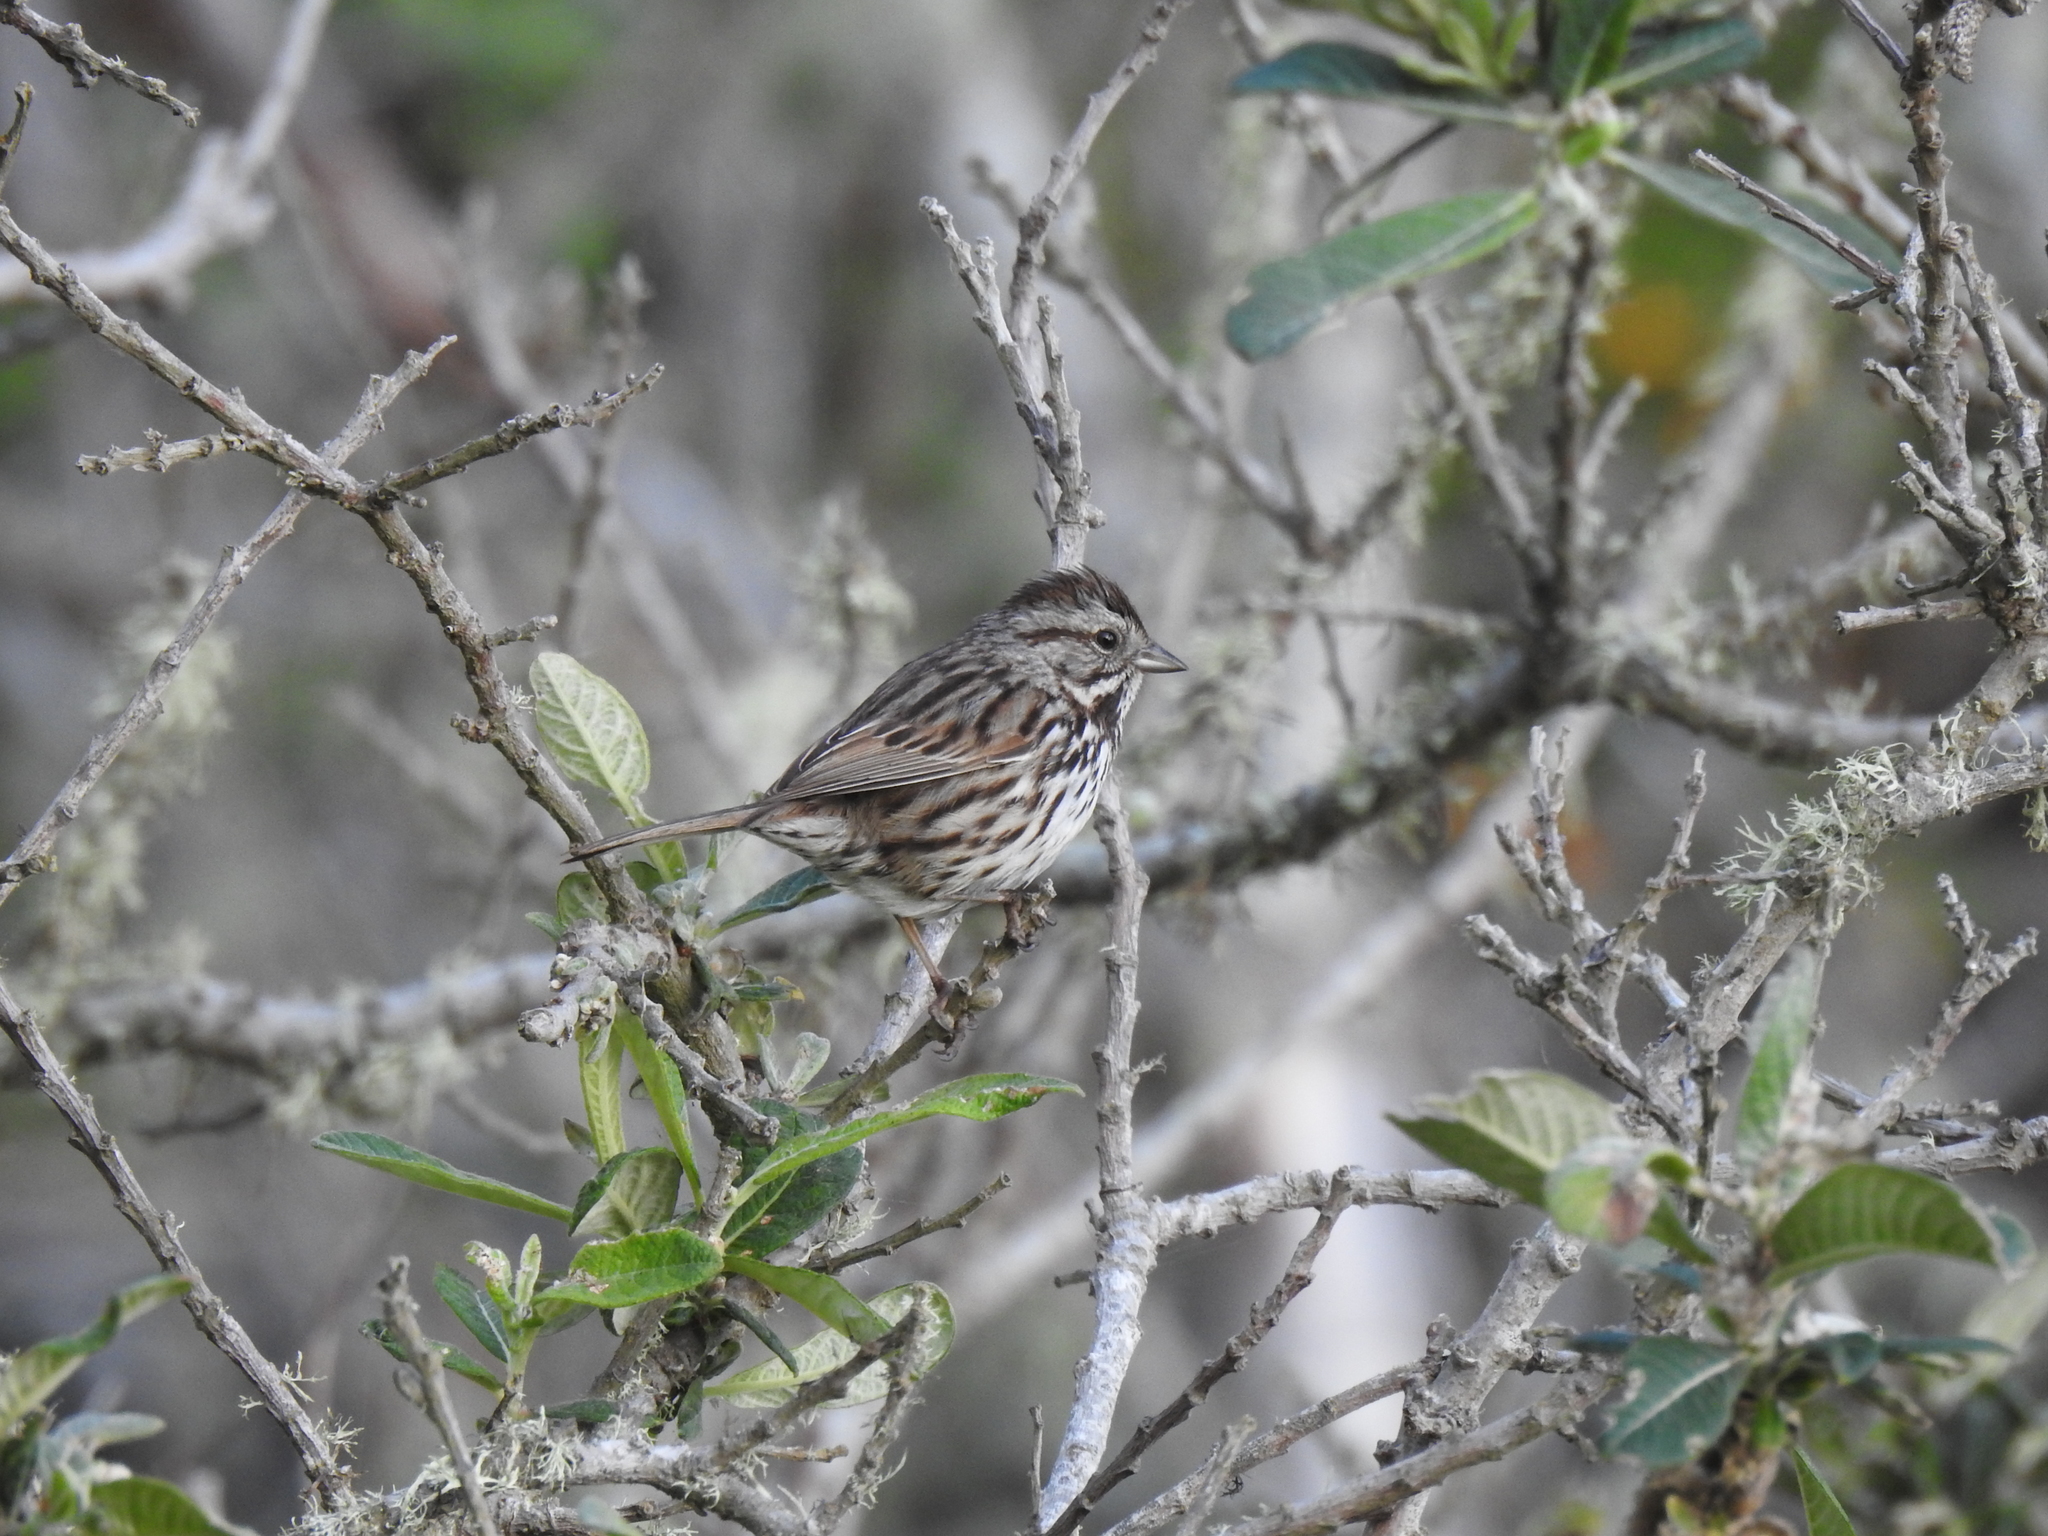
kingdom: Animalia
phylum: Chordata
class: Aves
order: Passeriformes
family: Passerellidae
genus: Melospiza
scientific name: Melospiza melodia
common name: Song sparrow
